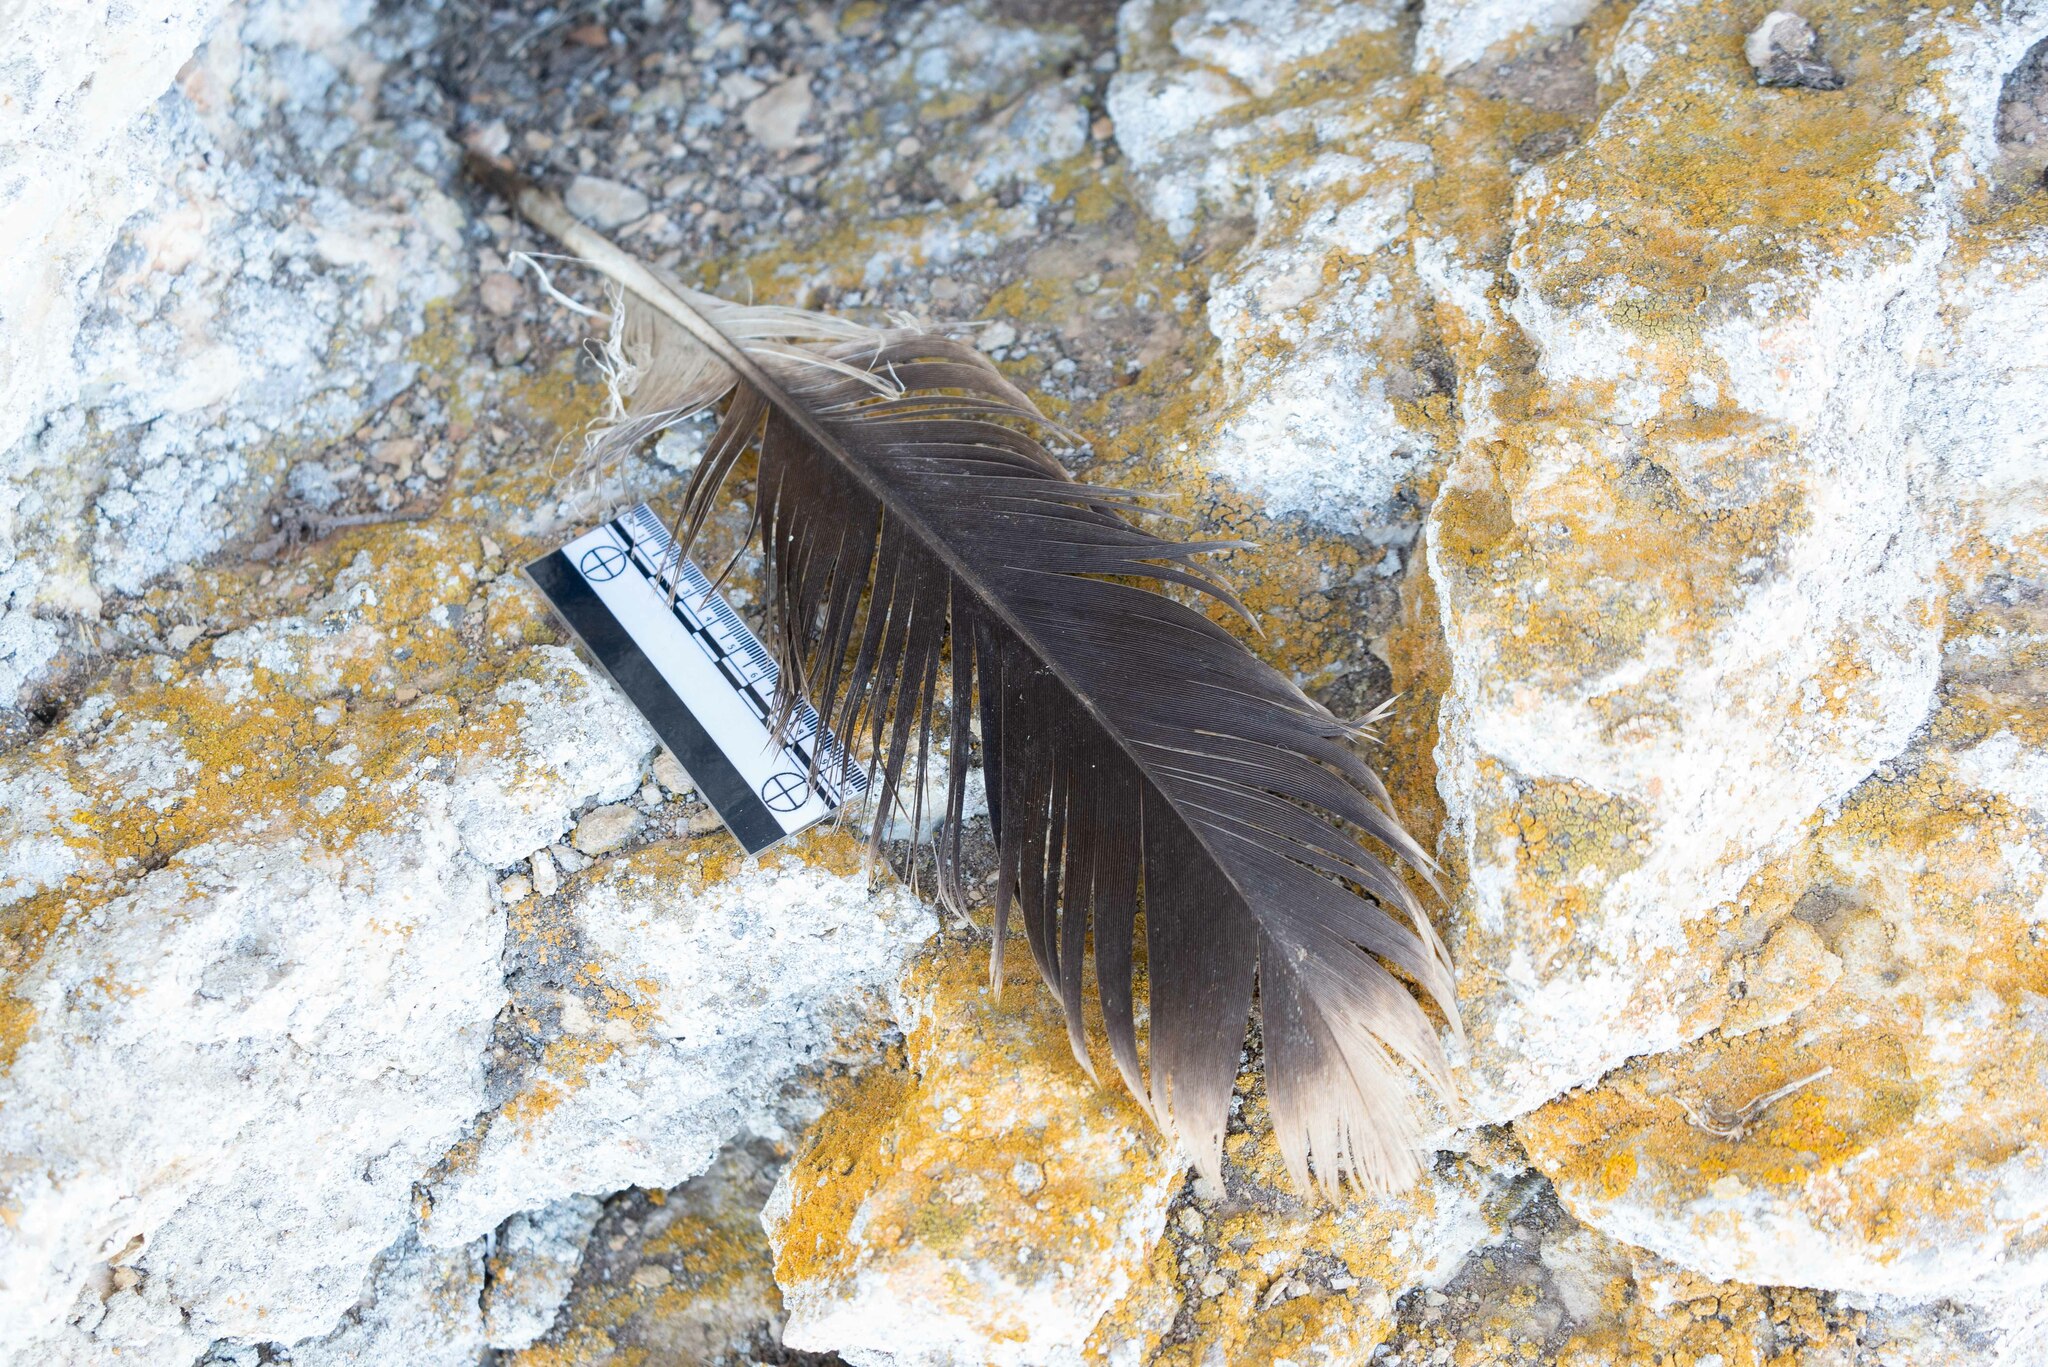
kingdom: Animalia
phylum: Chordata
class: Aves
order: Accipitriformes
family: Accipitridae
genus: Gyps
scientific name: Gyps fulvus
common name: Griffon vulture
